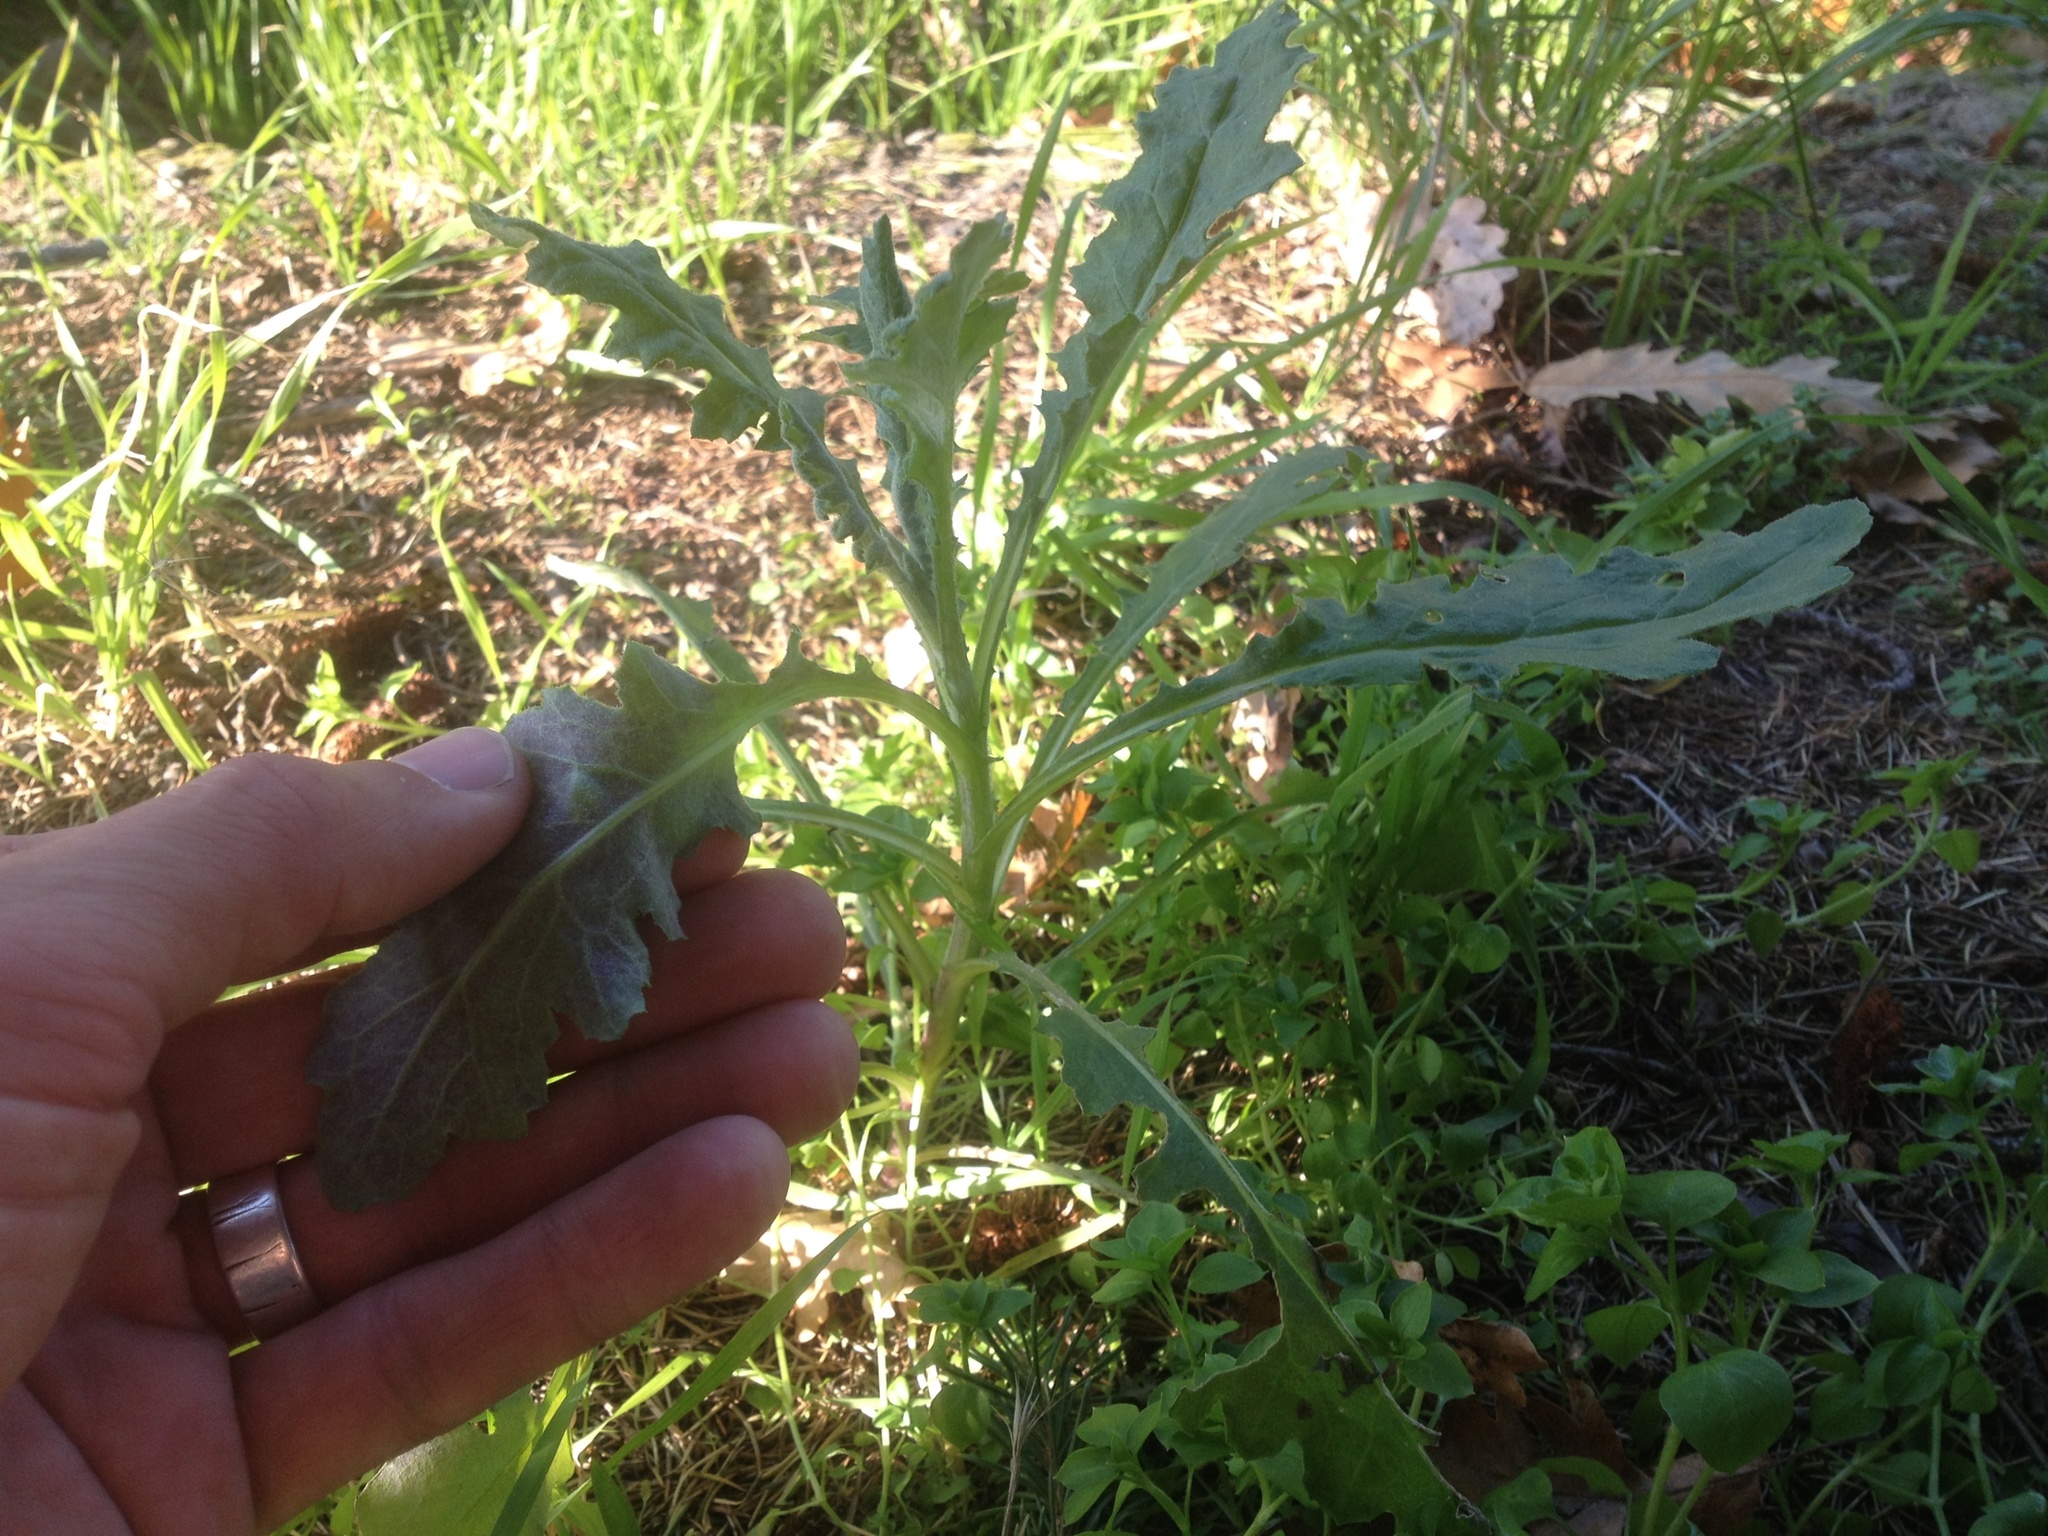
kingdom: Plantae
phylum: Tracheophyta
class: Magnoliopsida
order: Asterales
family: Asteraceae
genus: Senecio
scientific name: Senecio glomeratus
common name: Cutleaf burnweed
